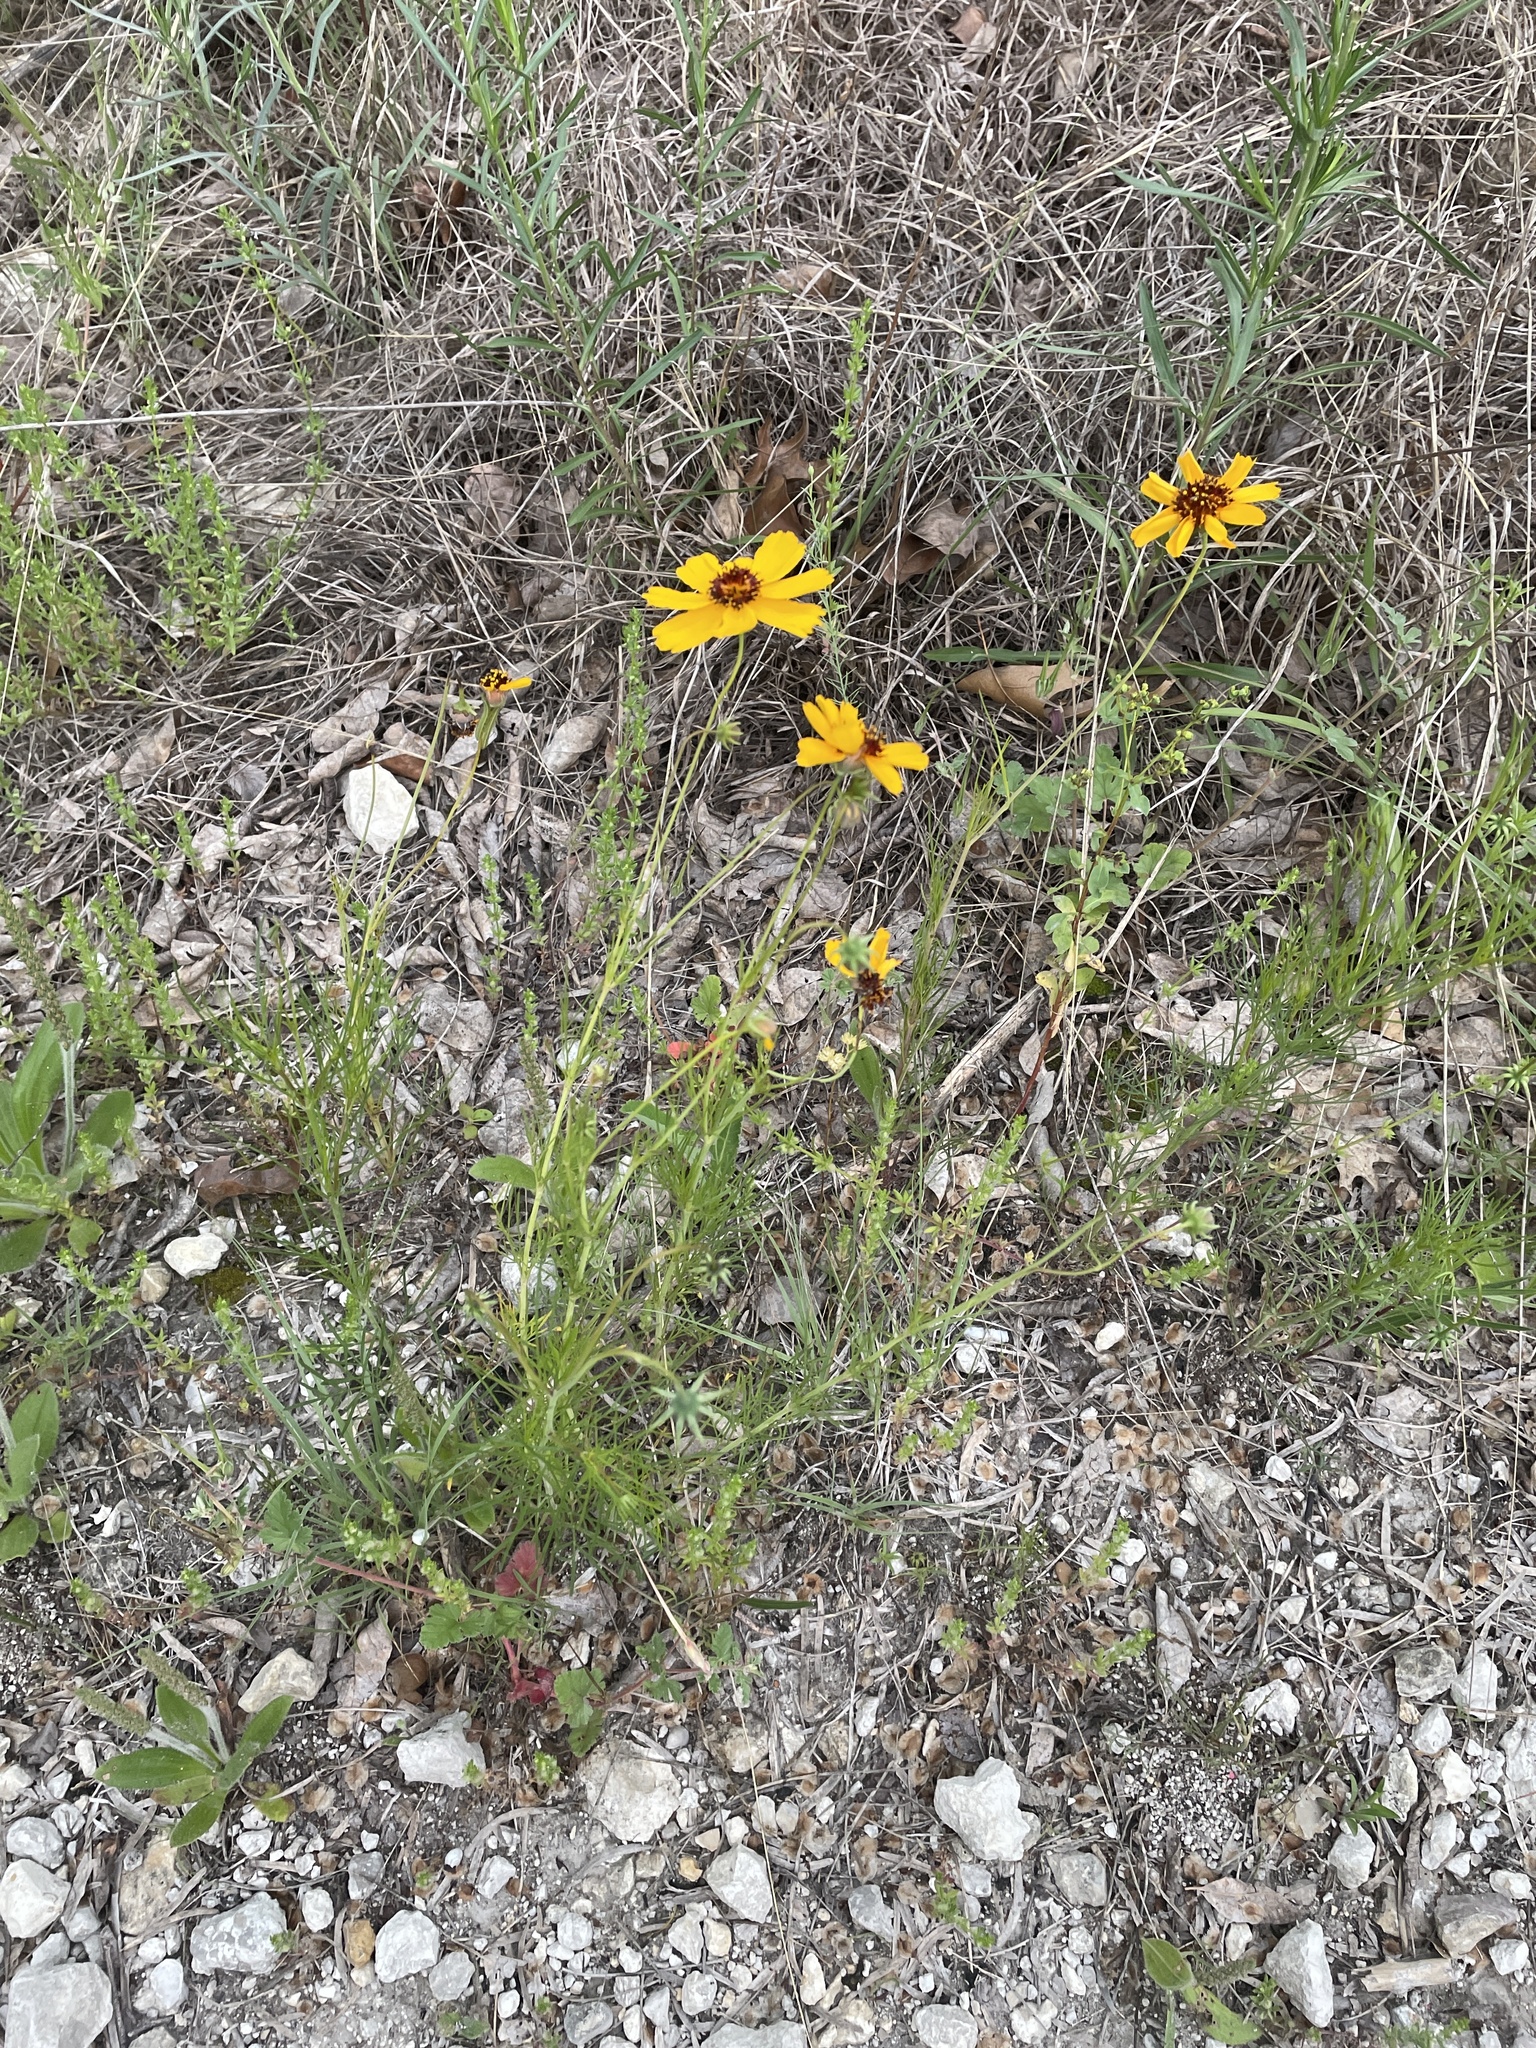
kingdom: Plantae
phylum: Tracheophyta
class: Magnoliopsida
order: Asterales
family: Asteraceae
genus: Thelesperma
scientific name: Thelesperma filifolium
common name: Stiff greenthread
